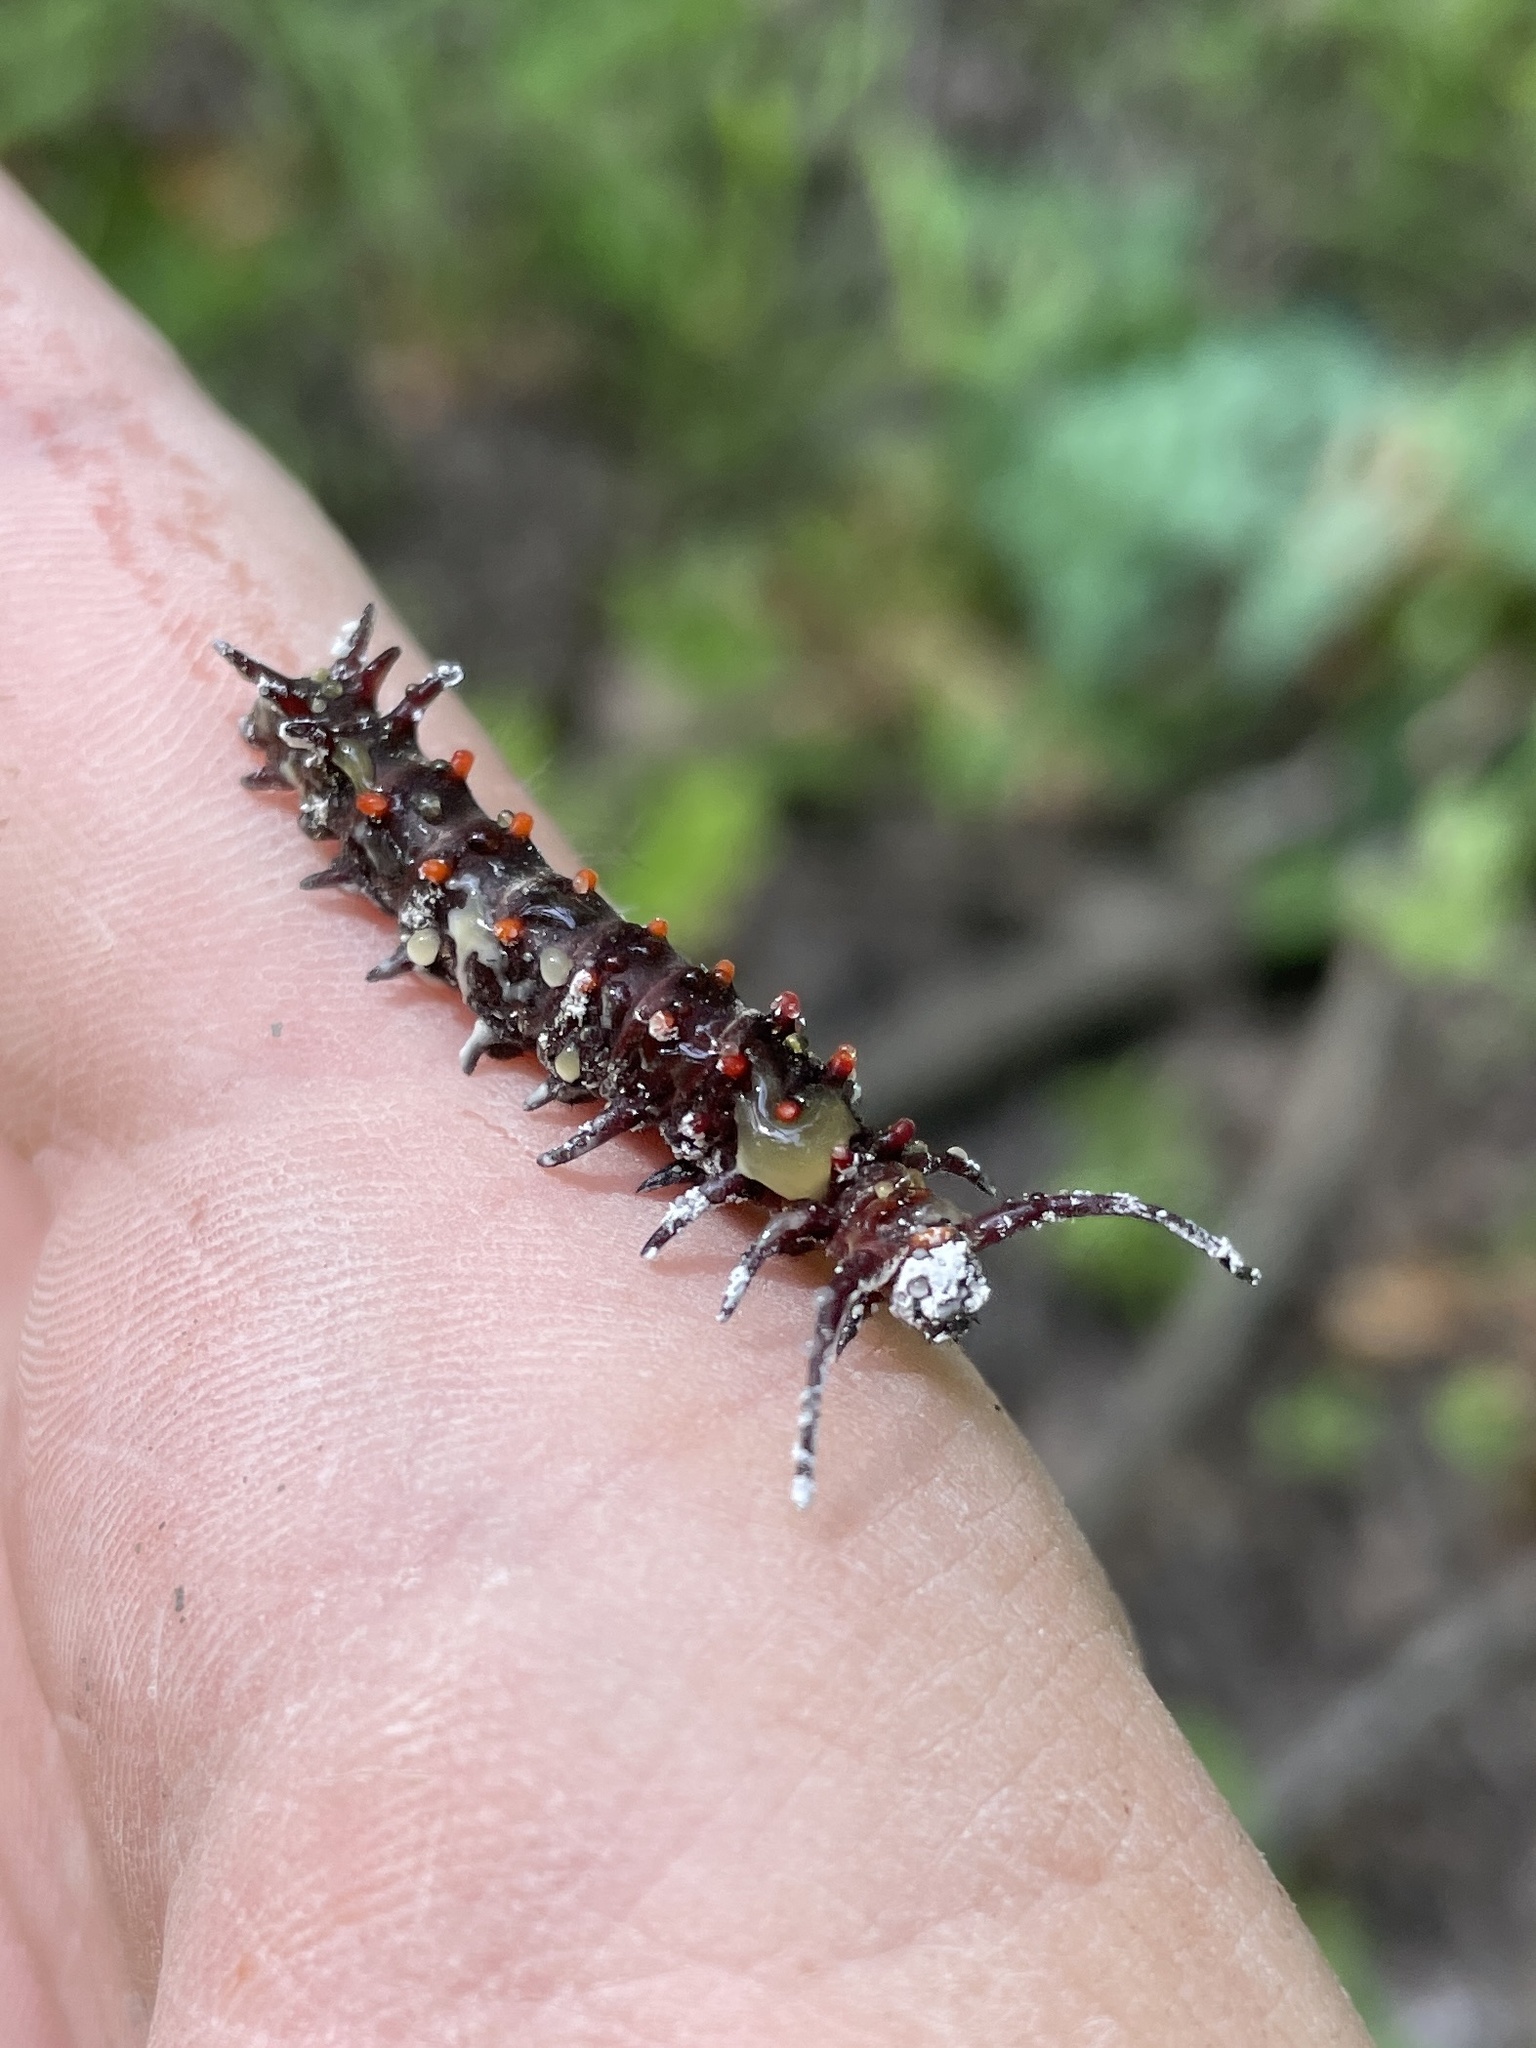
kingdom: Animalia
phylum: Arthropoda
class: Insecta
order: Lepidoptera
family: Papilionidae
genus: Battus
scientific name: Battus philenor
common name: Pipevine swallowtail
